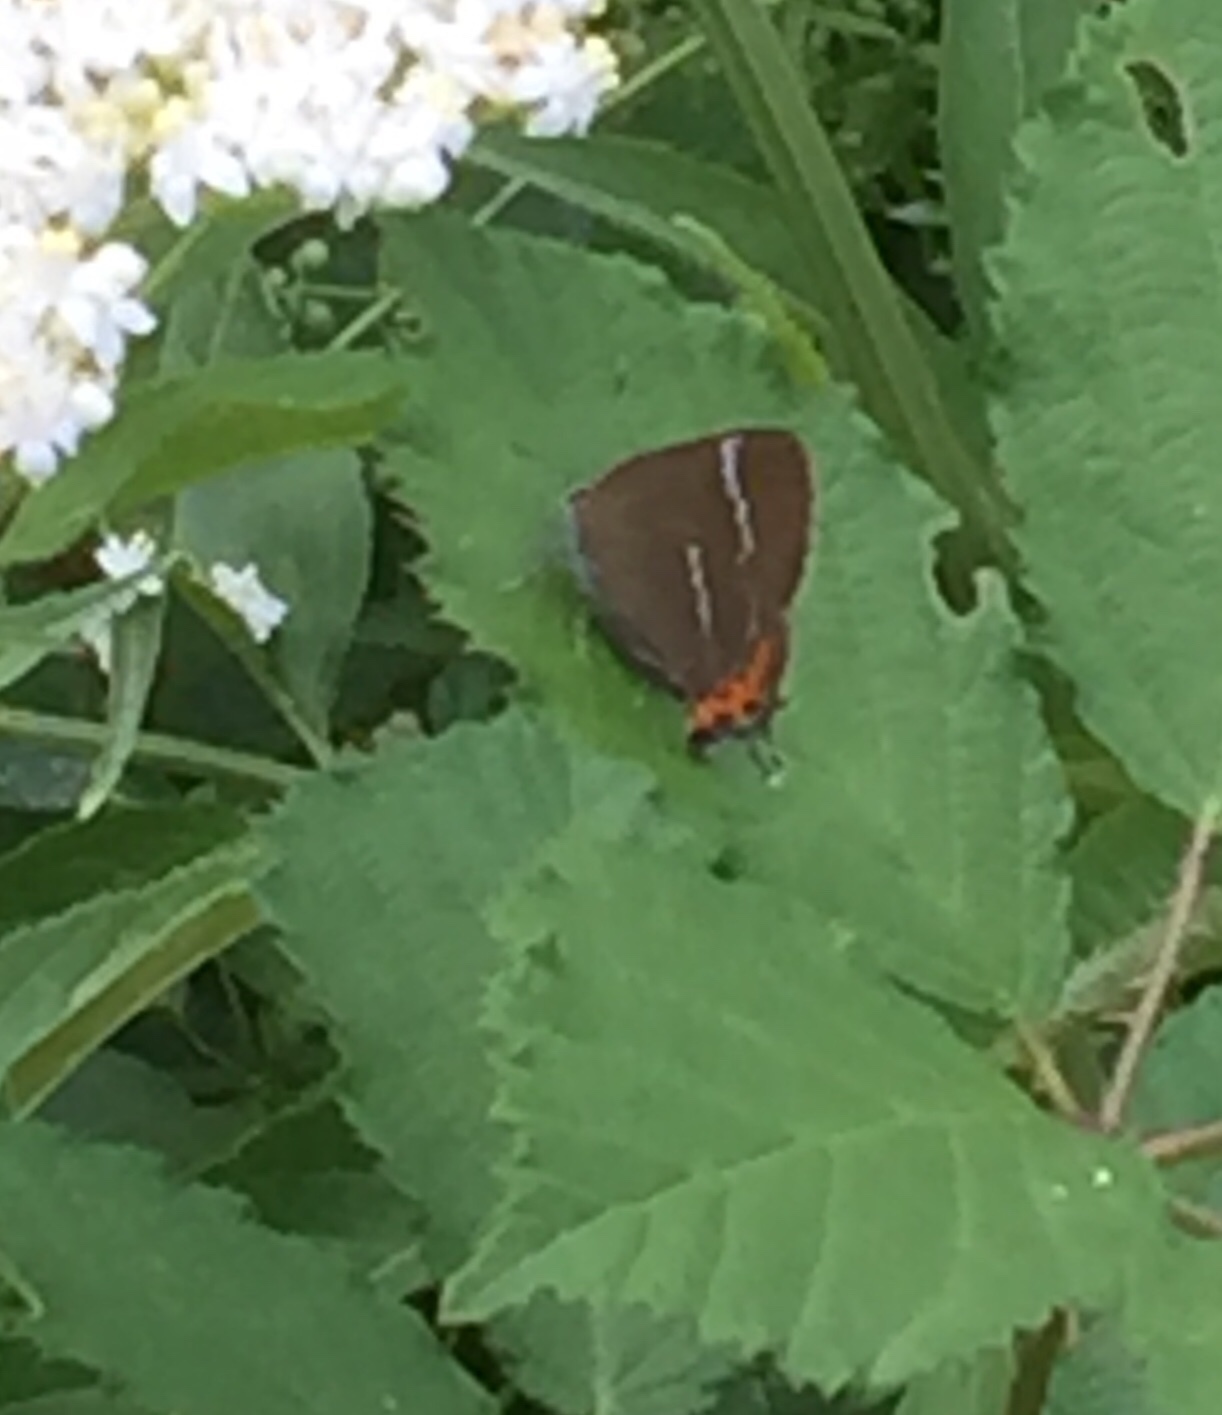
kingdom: Animalia
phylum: Arthropoda
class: Insecta
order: Lepidoptera
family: Lycaenidae
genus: Satyrium
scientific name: Satyrium w-album
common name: White-letter hairstreak
